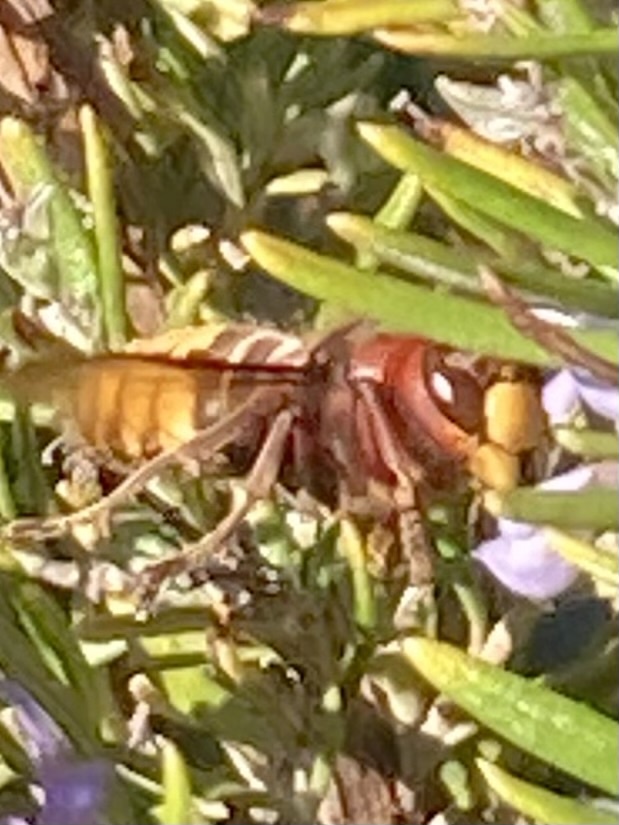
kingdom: Animalia
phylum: Arthropoda
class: Insecta
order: Hymenoptera
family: Vespidae
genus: Vespa
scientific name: Vespa crabro
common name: Hornet
